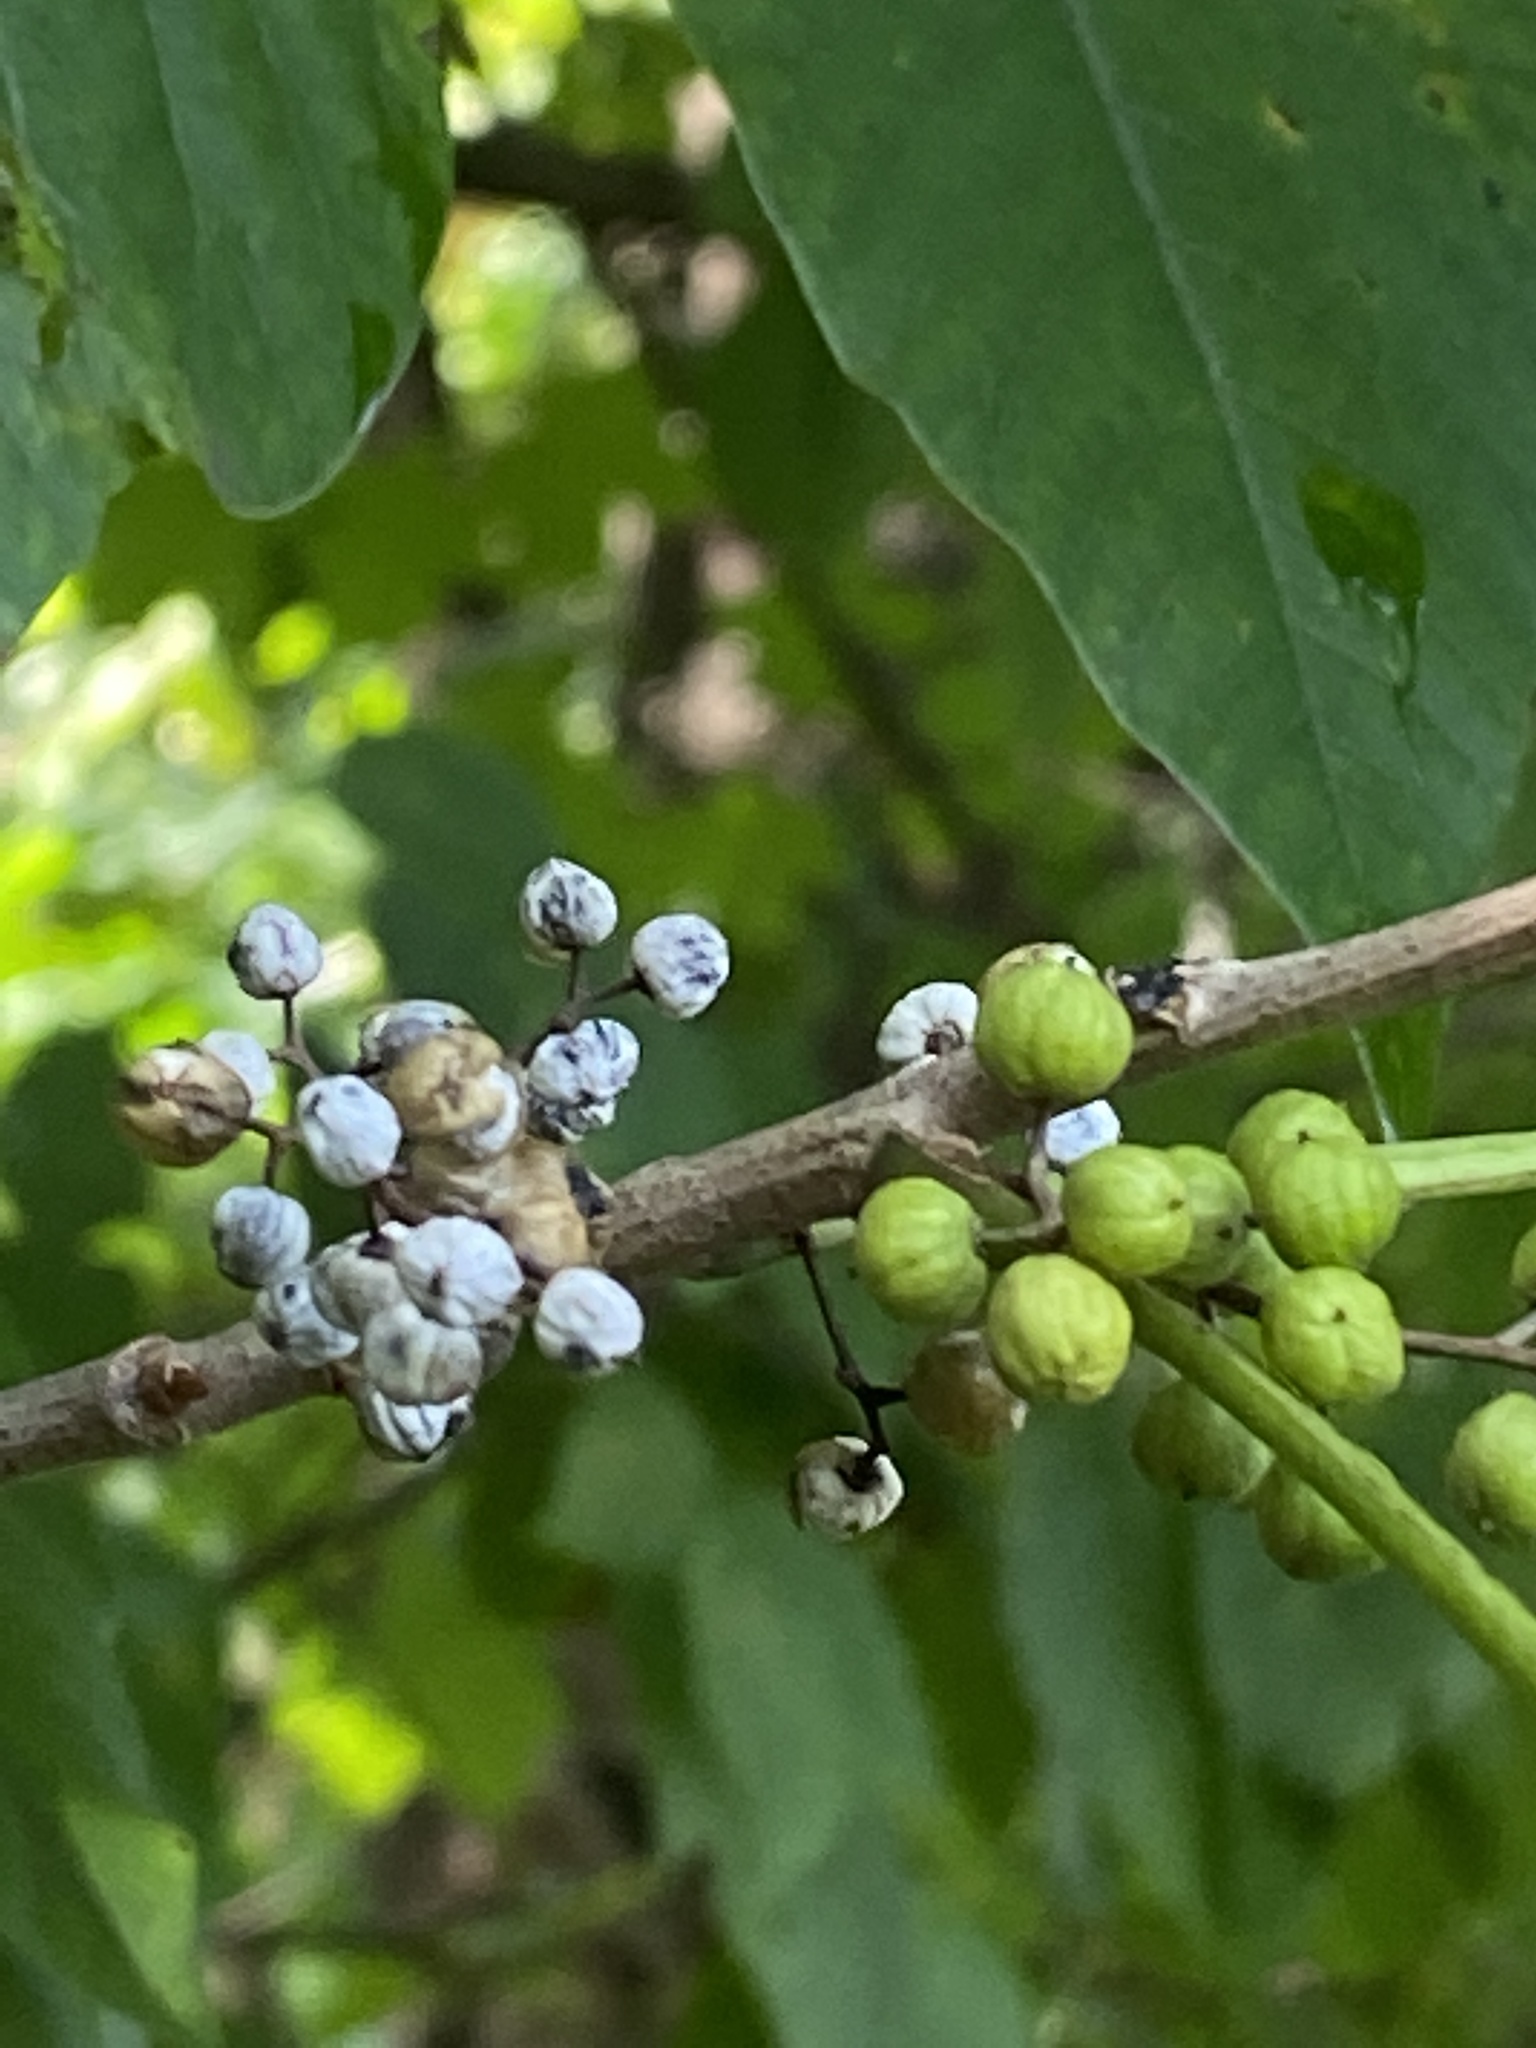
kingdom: Plantae
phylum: Tracheophyta
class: Magnoliopsida
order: Sapindales
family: Anacardiaceae
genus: Toxicodendron
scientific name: Toxicodendron radicans
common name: Poison ivy
